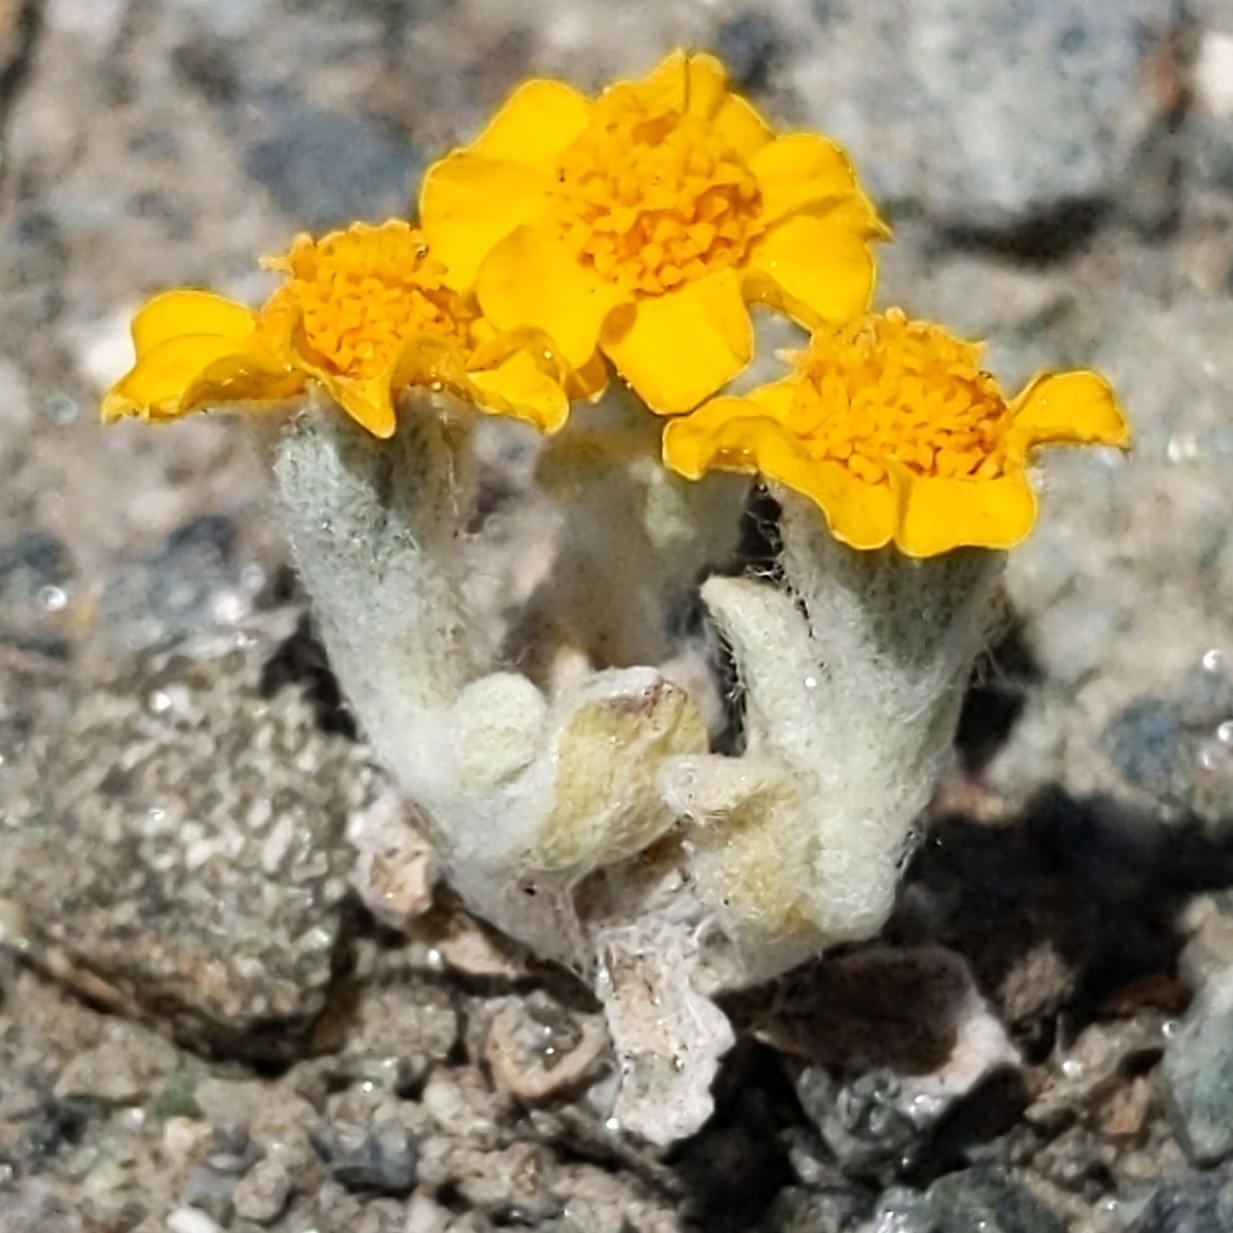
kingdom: Plantae
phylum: Tracheophyta
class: Magnoliopsida
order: Asterales
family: Asteraceae
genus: Eriophyllum
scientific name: Eriophyllum wallacei
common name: Wallace's woolly daisy
